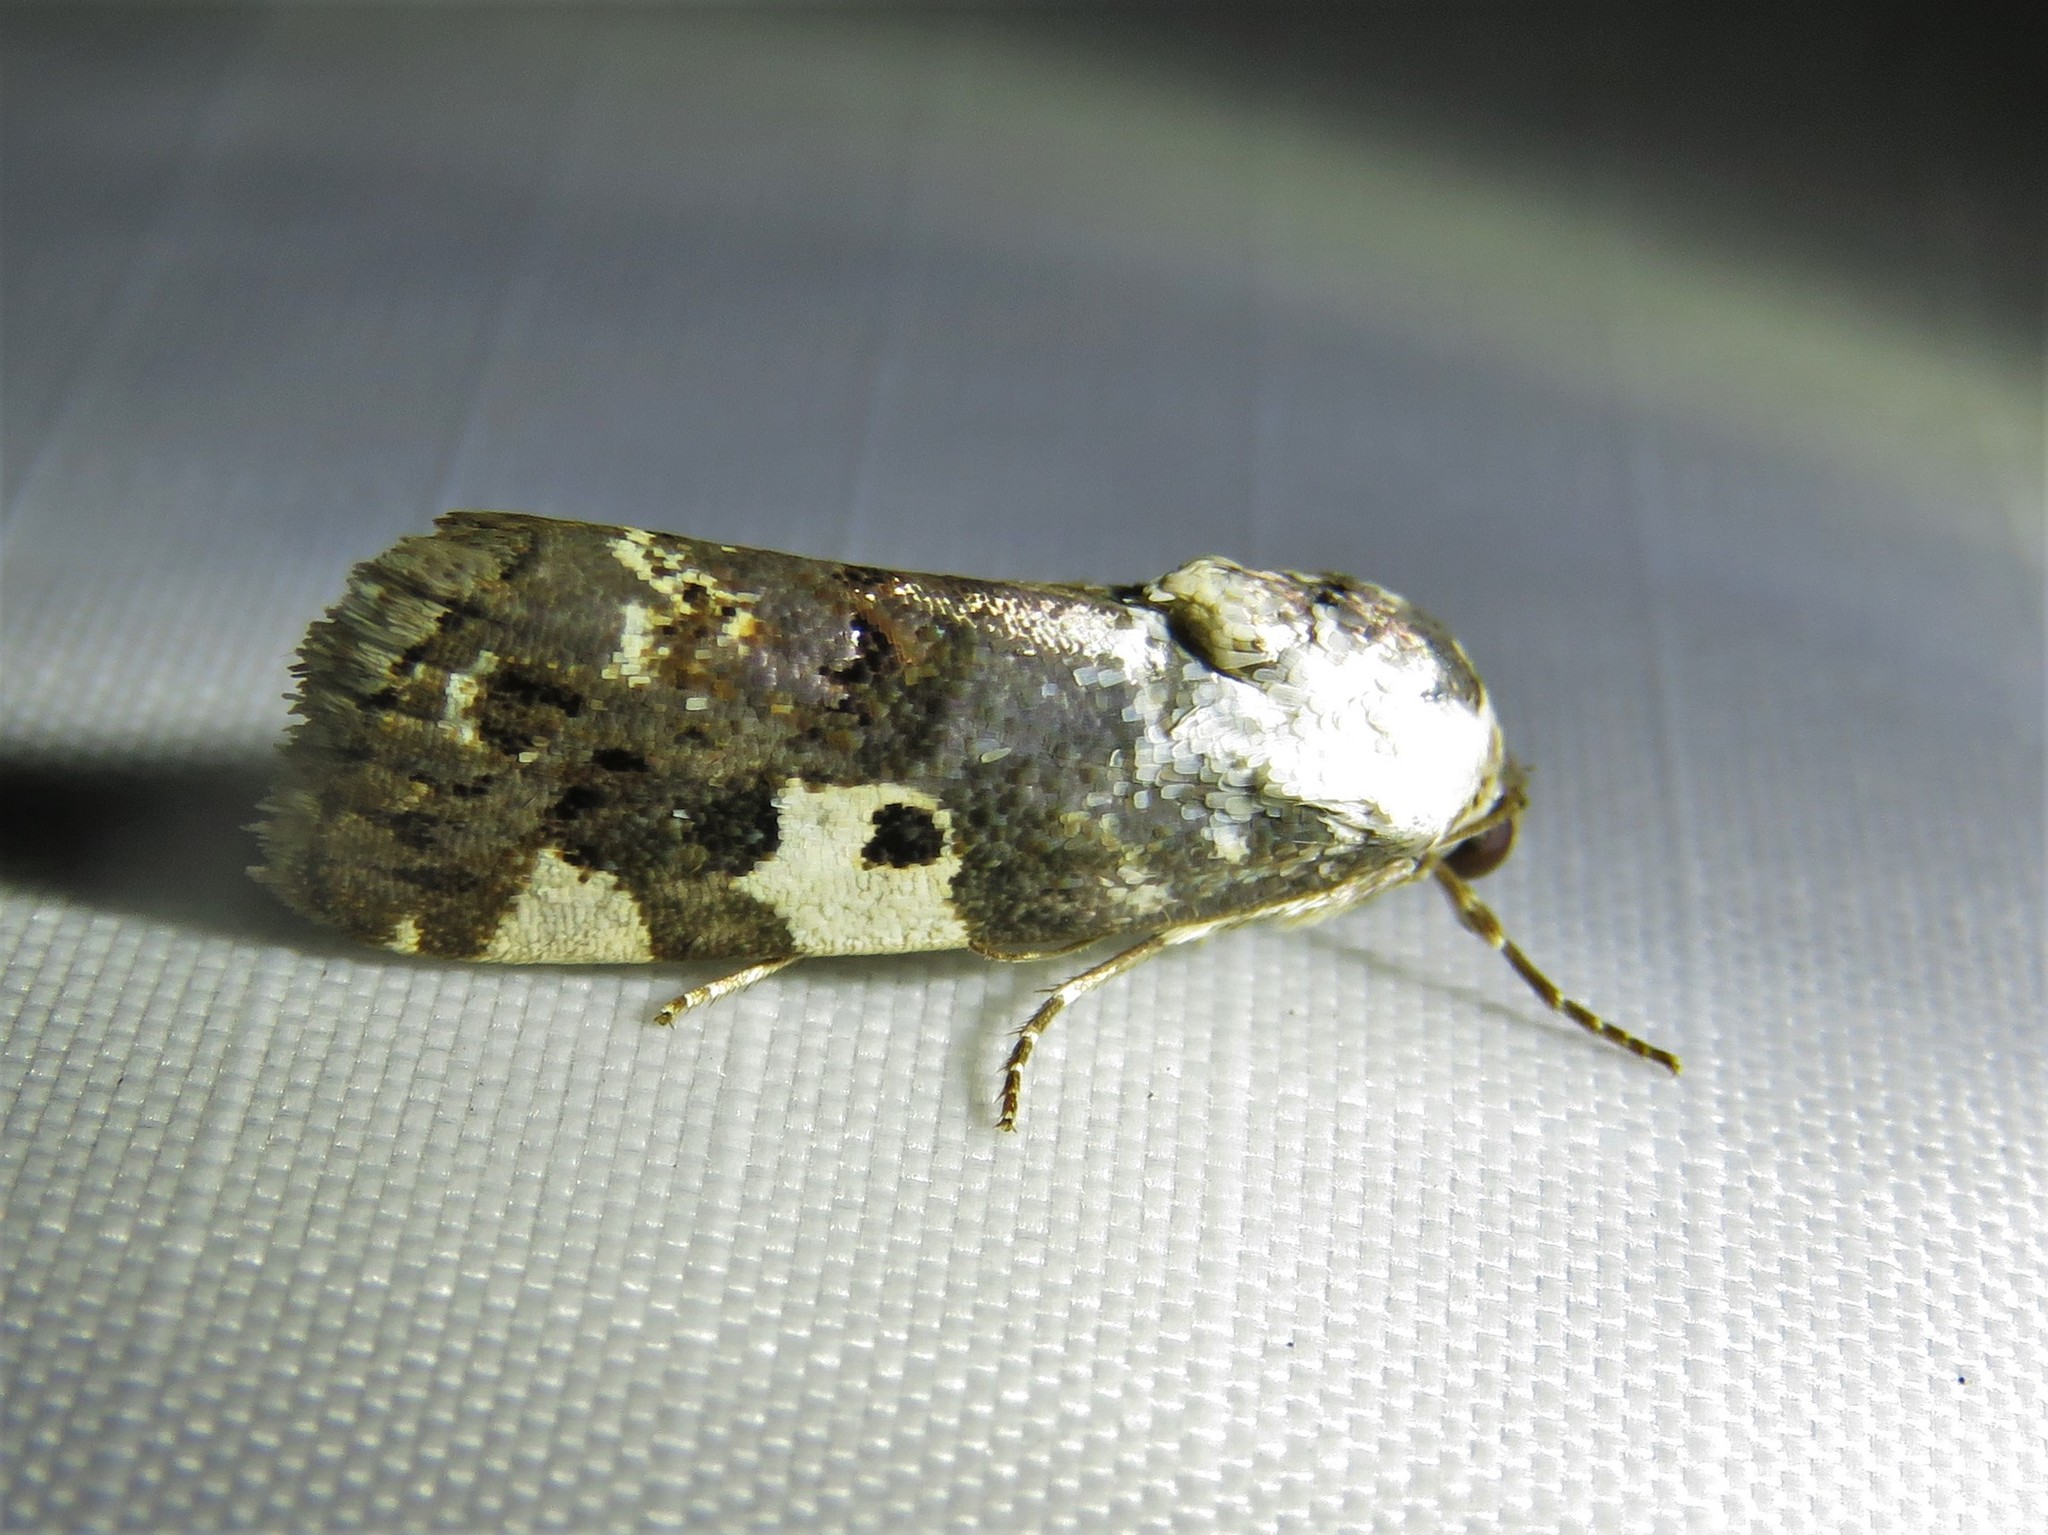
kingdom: Animalia
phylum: Arthropoda
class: Insecta
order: Lepidoptera
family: Noctuidae
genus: Acontia
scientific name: Acontia aprica
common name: Nun
